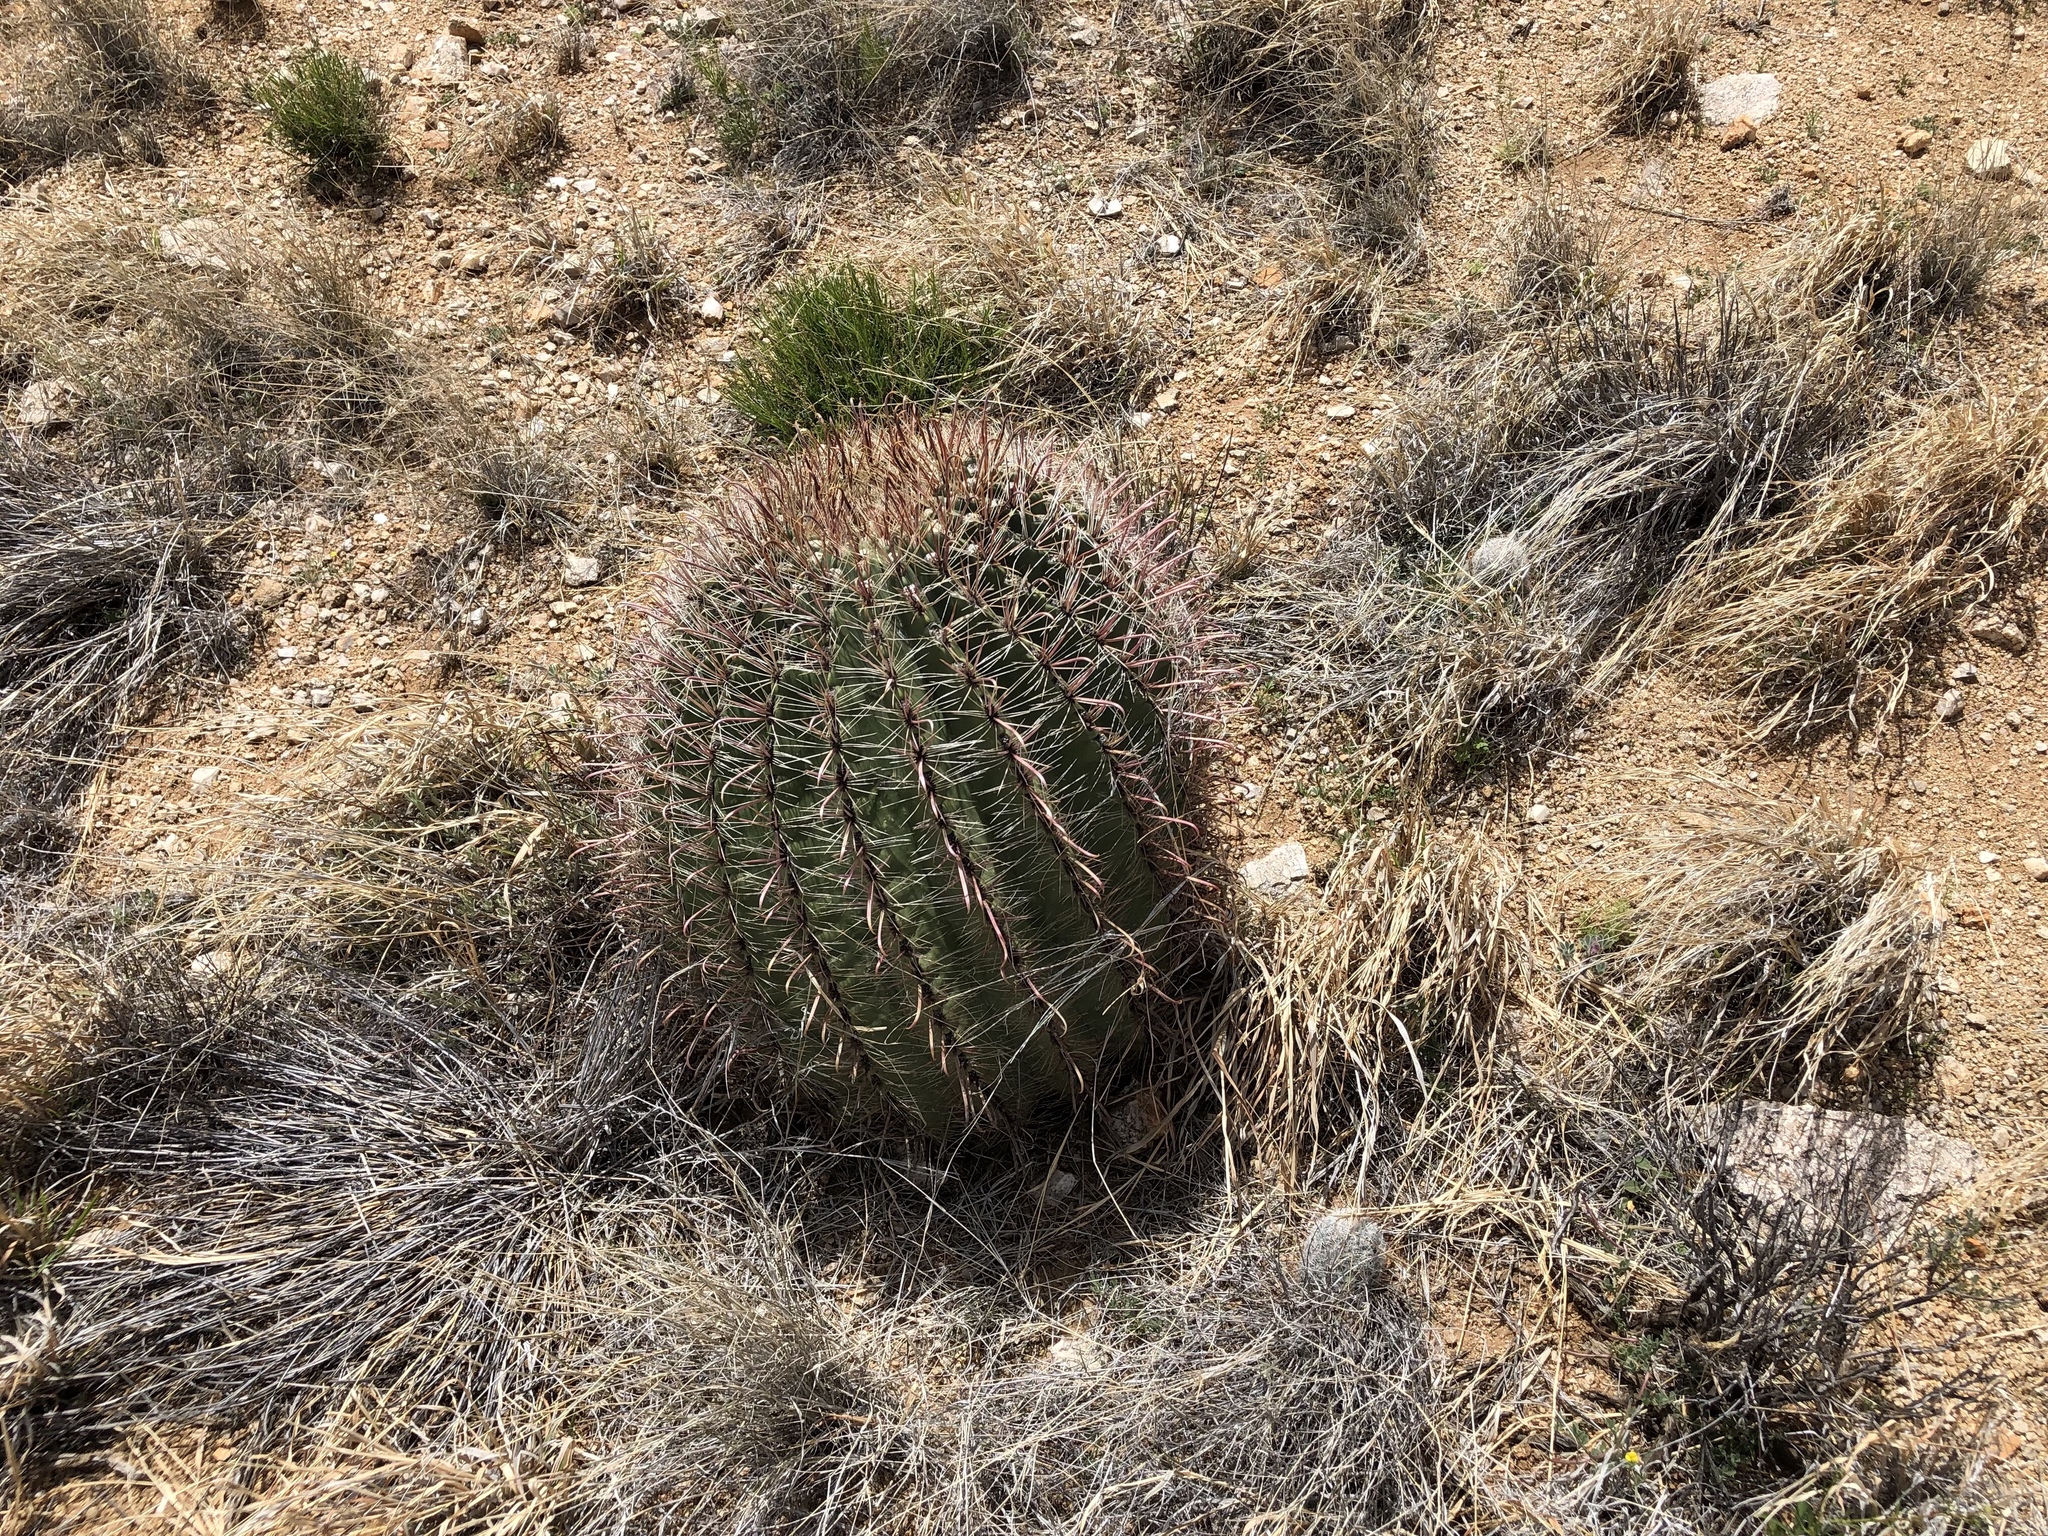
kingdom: Plantae
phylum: Tracheophyta
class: Magnoliopsida
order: Caryophyllales
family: Cactaceae
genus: Ferocactus
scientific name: Ferocactus wislizeni
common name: Candy barrel cactus
